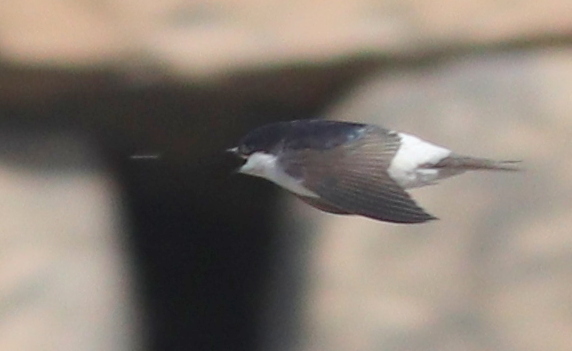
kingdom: Animalia
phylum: Chordata
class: Aves
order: Passeriformes
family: Hirundinidae
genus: Delichon
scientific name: Delichon urbicum
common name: Common house martin
